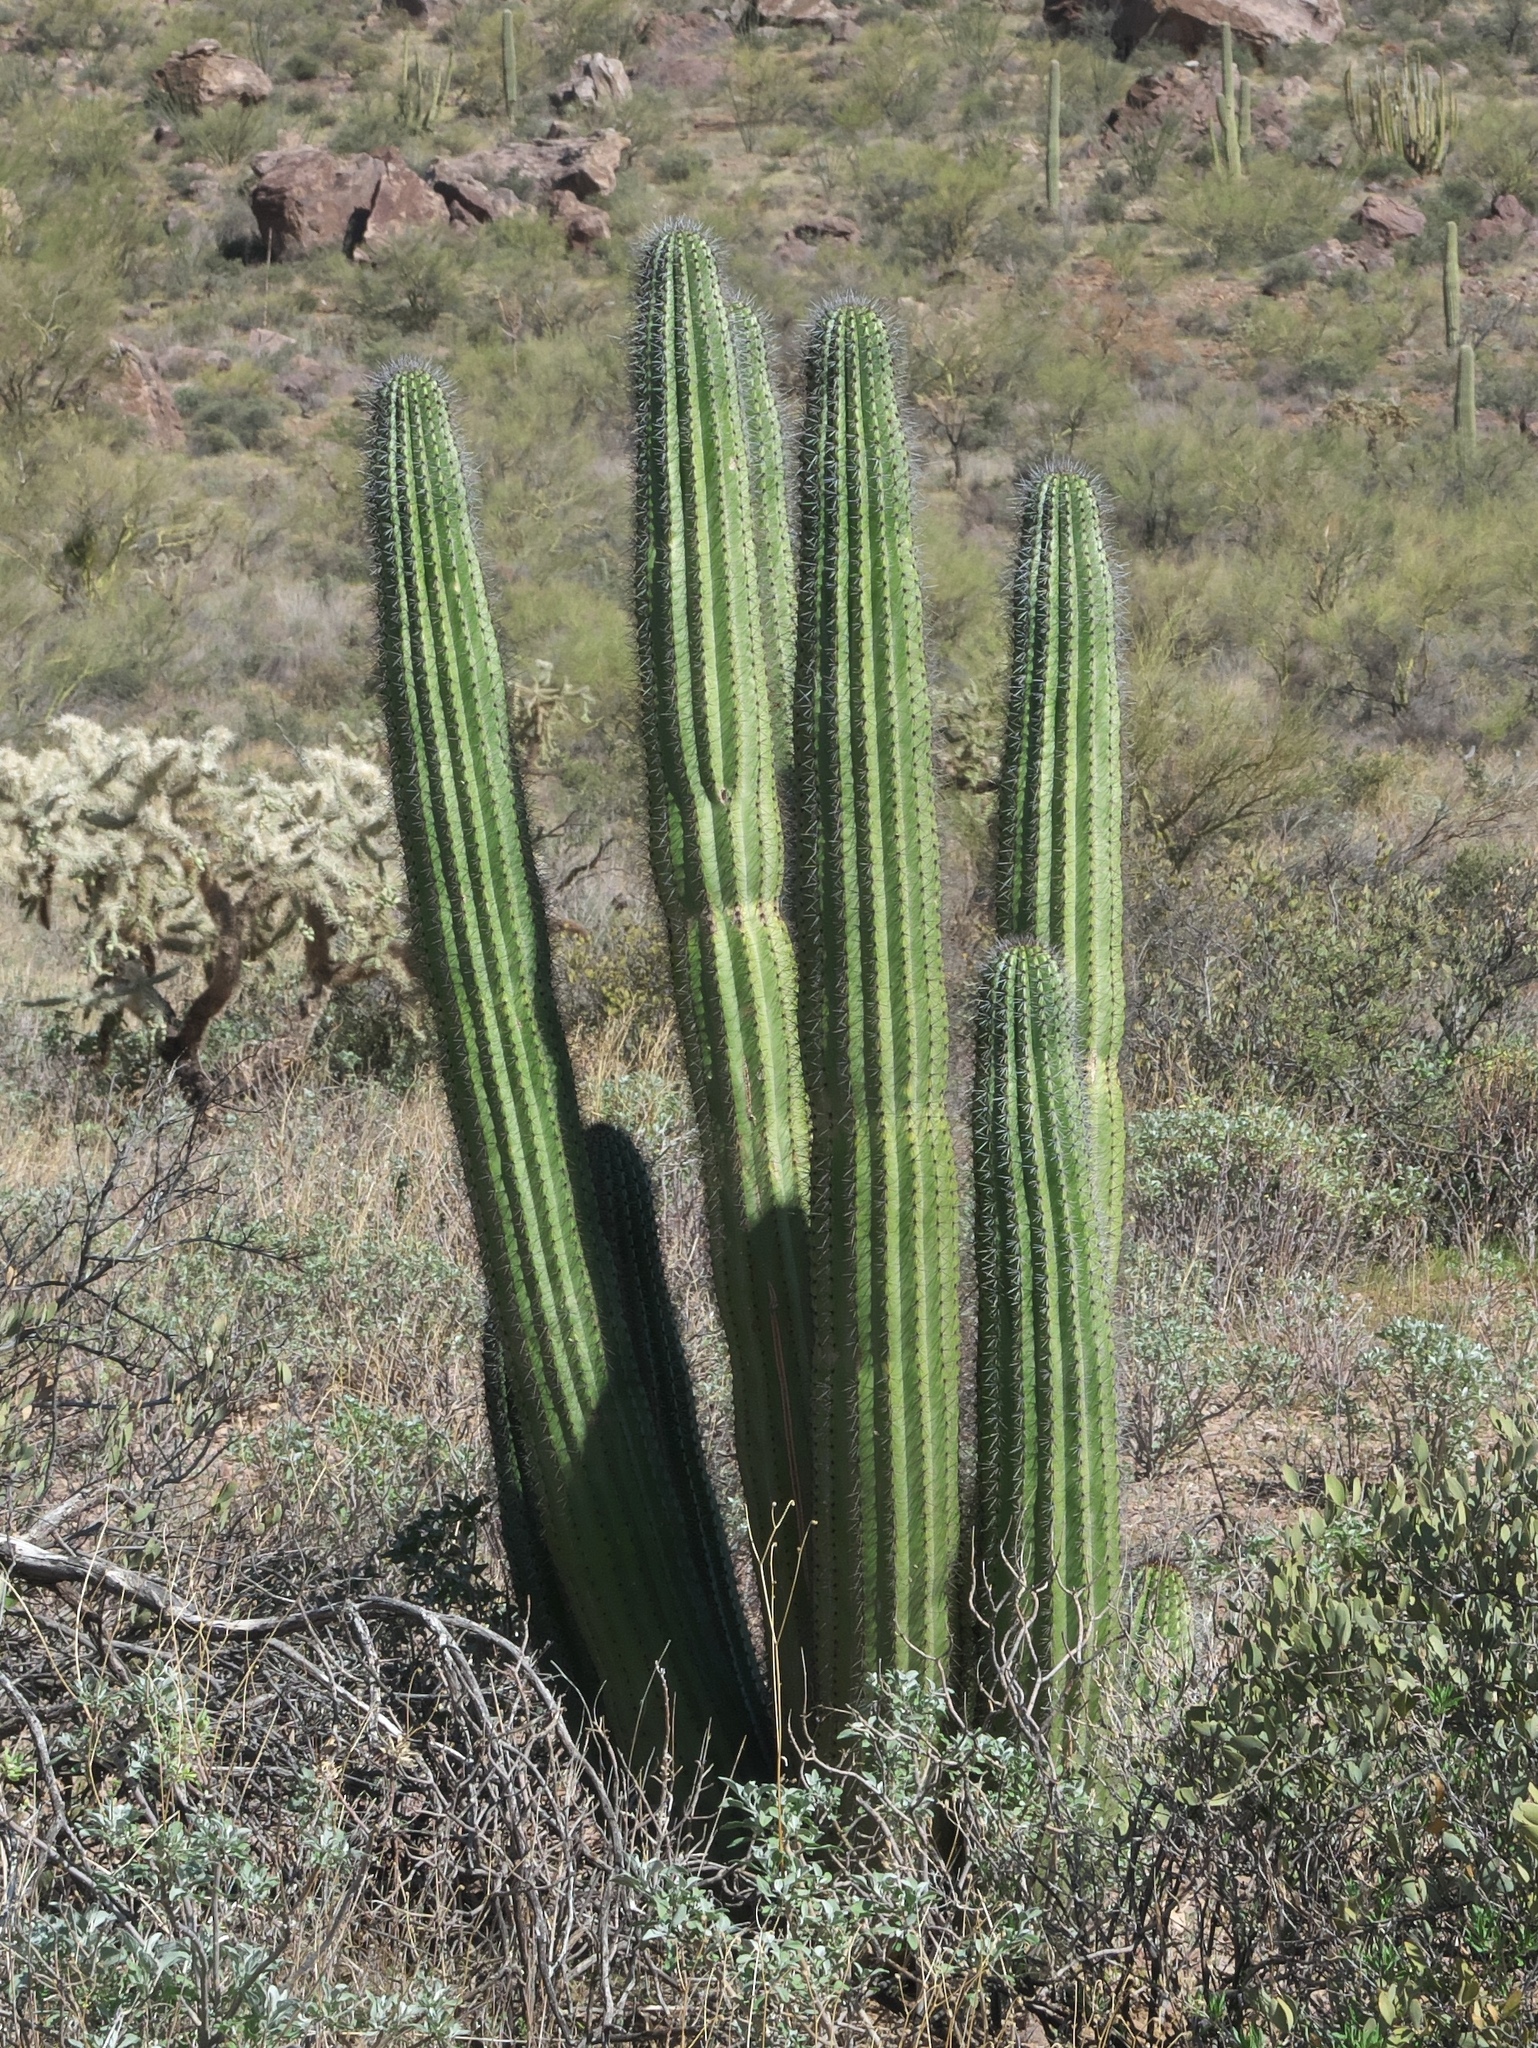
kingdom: Plantae
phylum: Tracheophyta
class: Magnoliopsida
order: Caryophyllales
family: Cactaceae
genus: Stenocereus
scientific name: Stenocereus thurberi
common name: Organ pipe cactus
